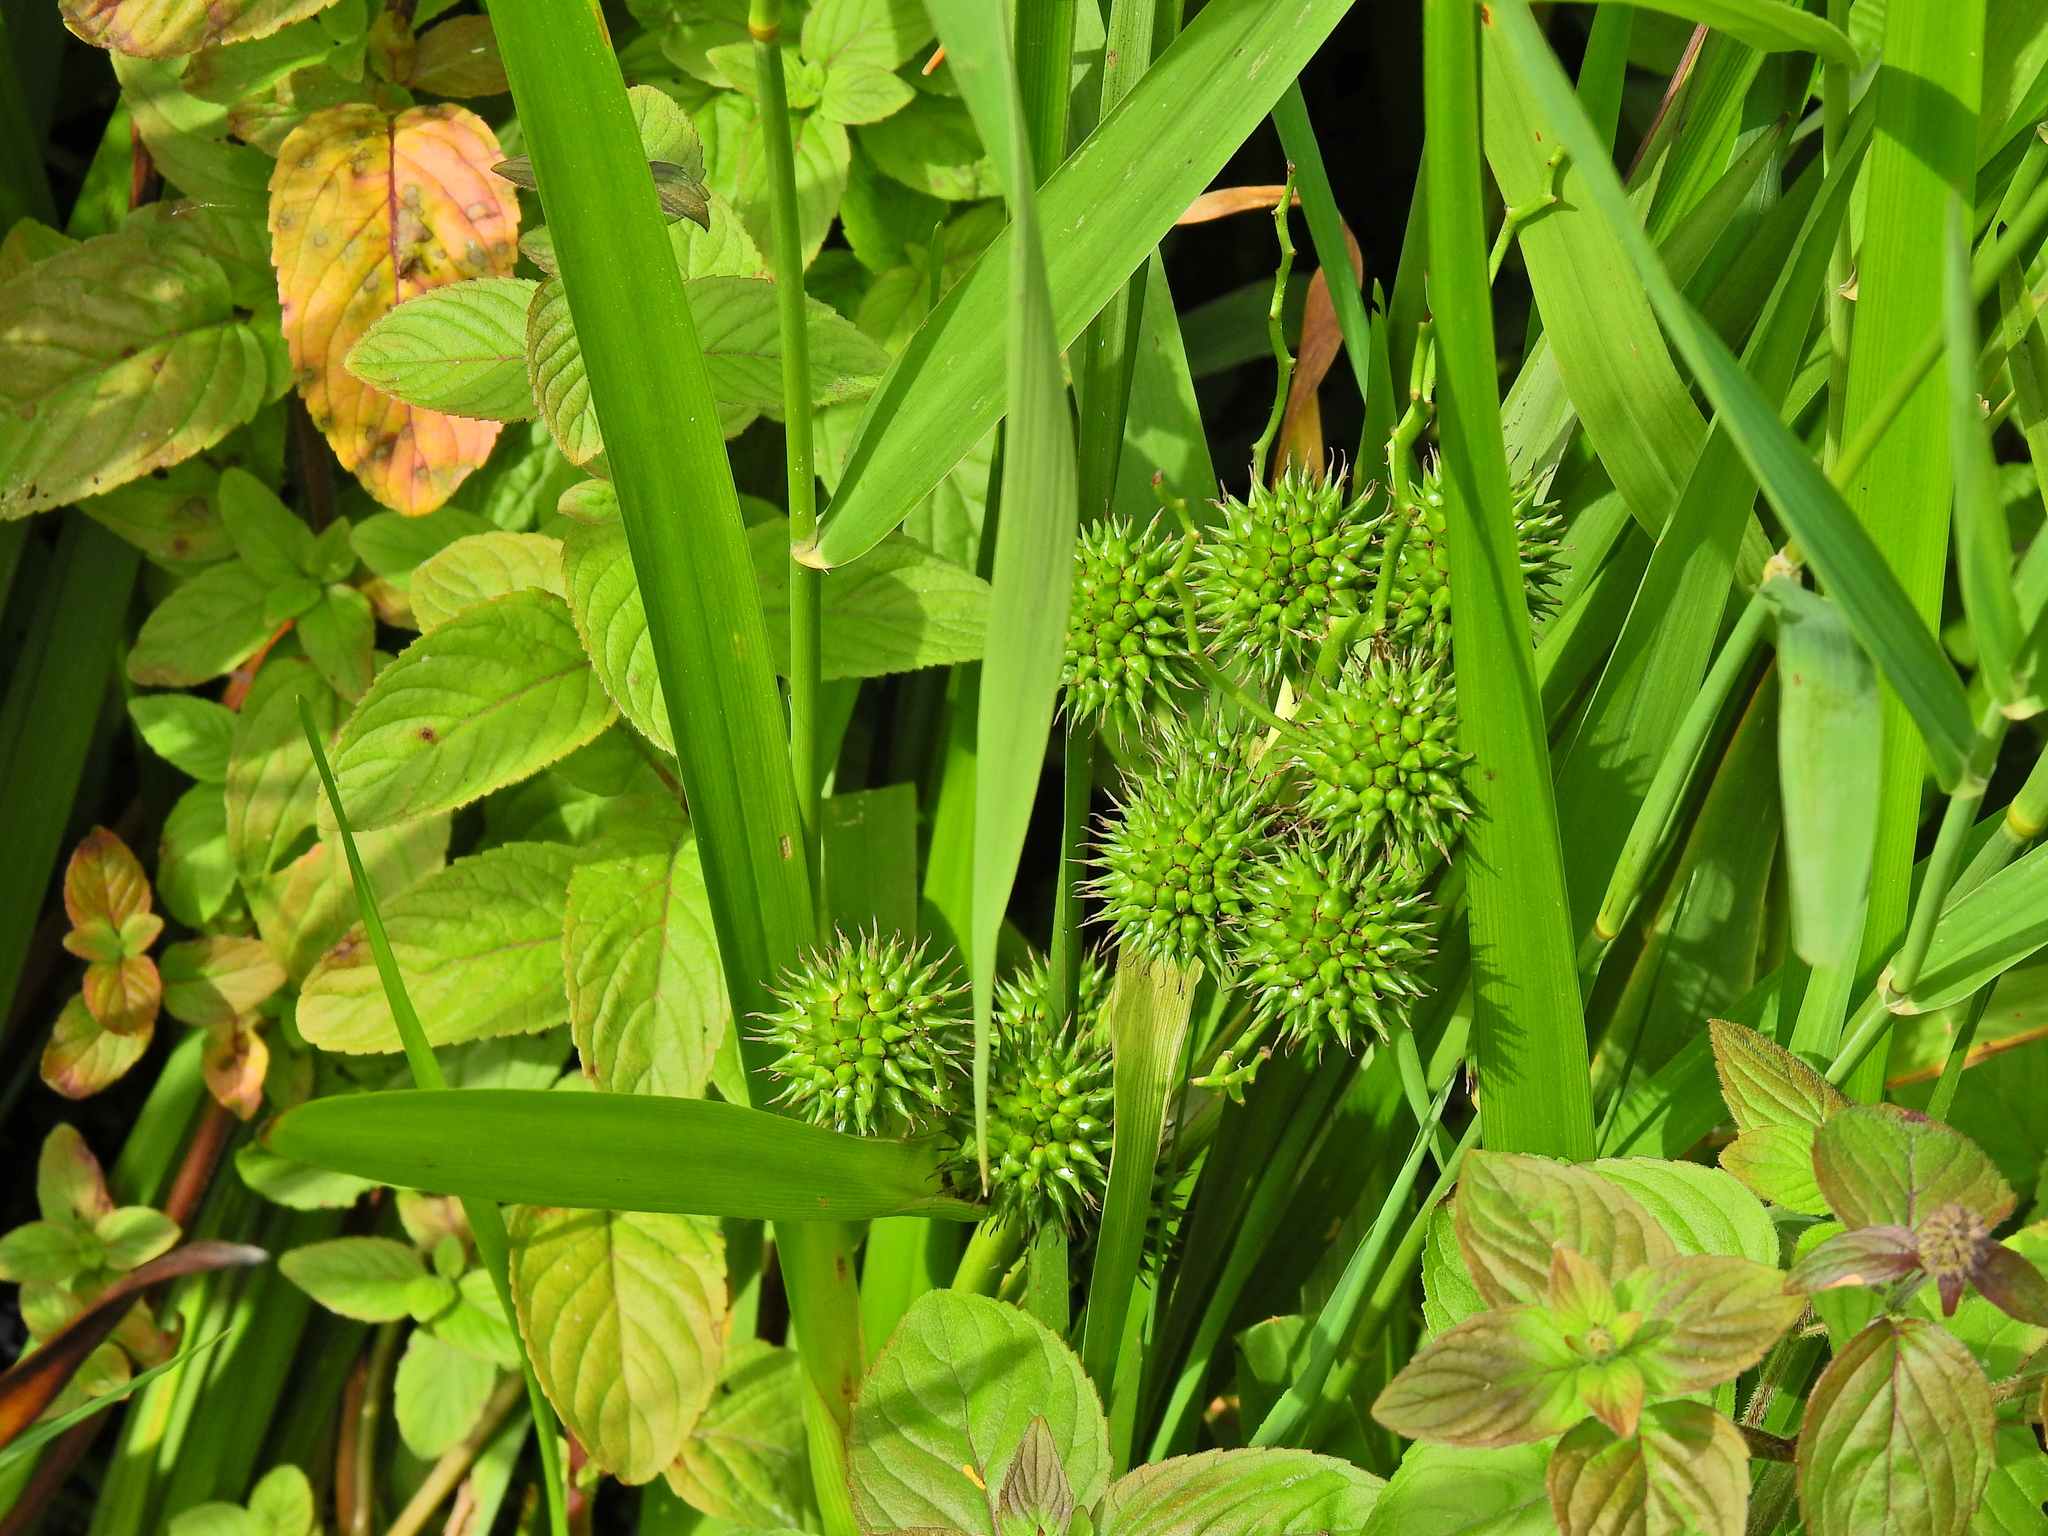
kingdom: Plantae
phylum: Tracheophyta
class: Liliopsida
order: Poales
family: Typhaceae
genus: Sparganium
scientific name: Sparganium erectum
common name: Branched bur-reed
